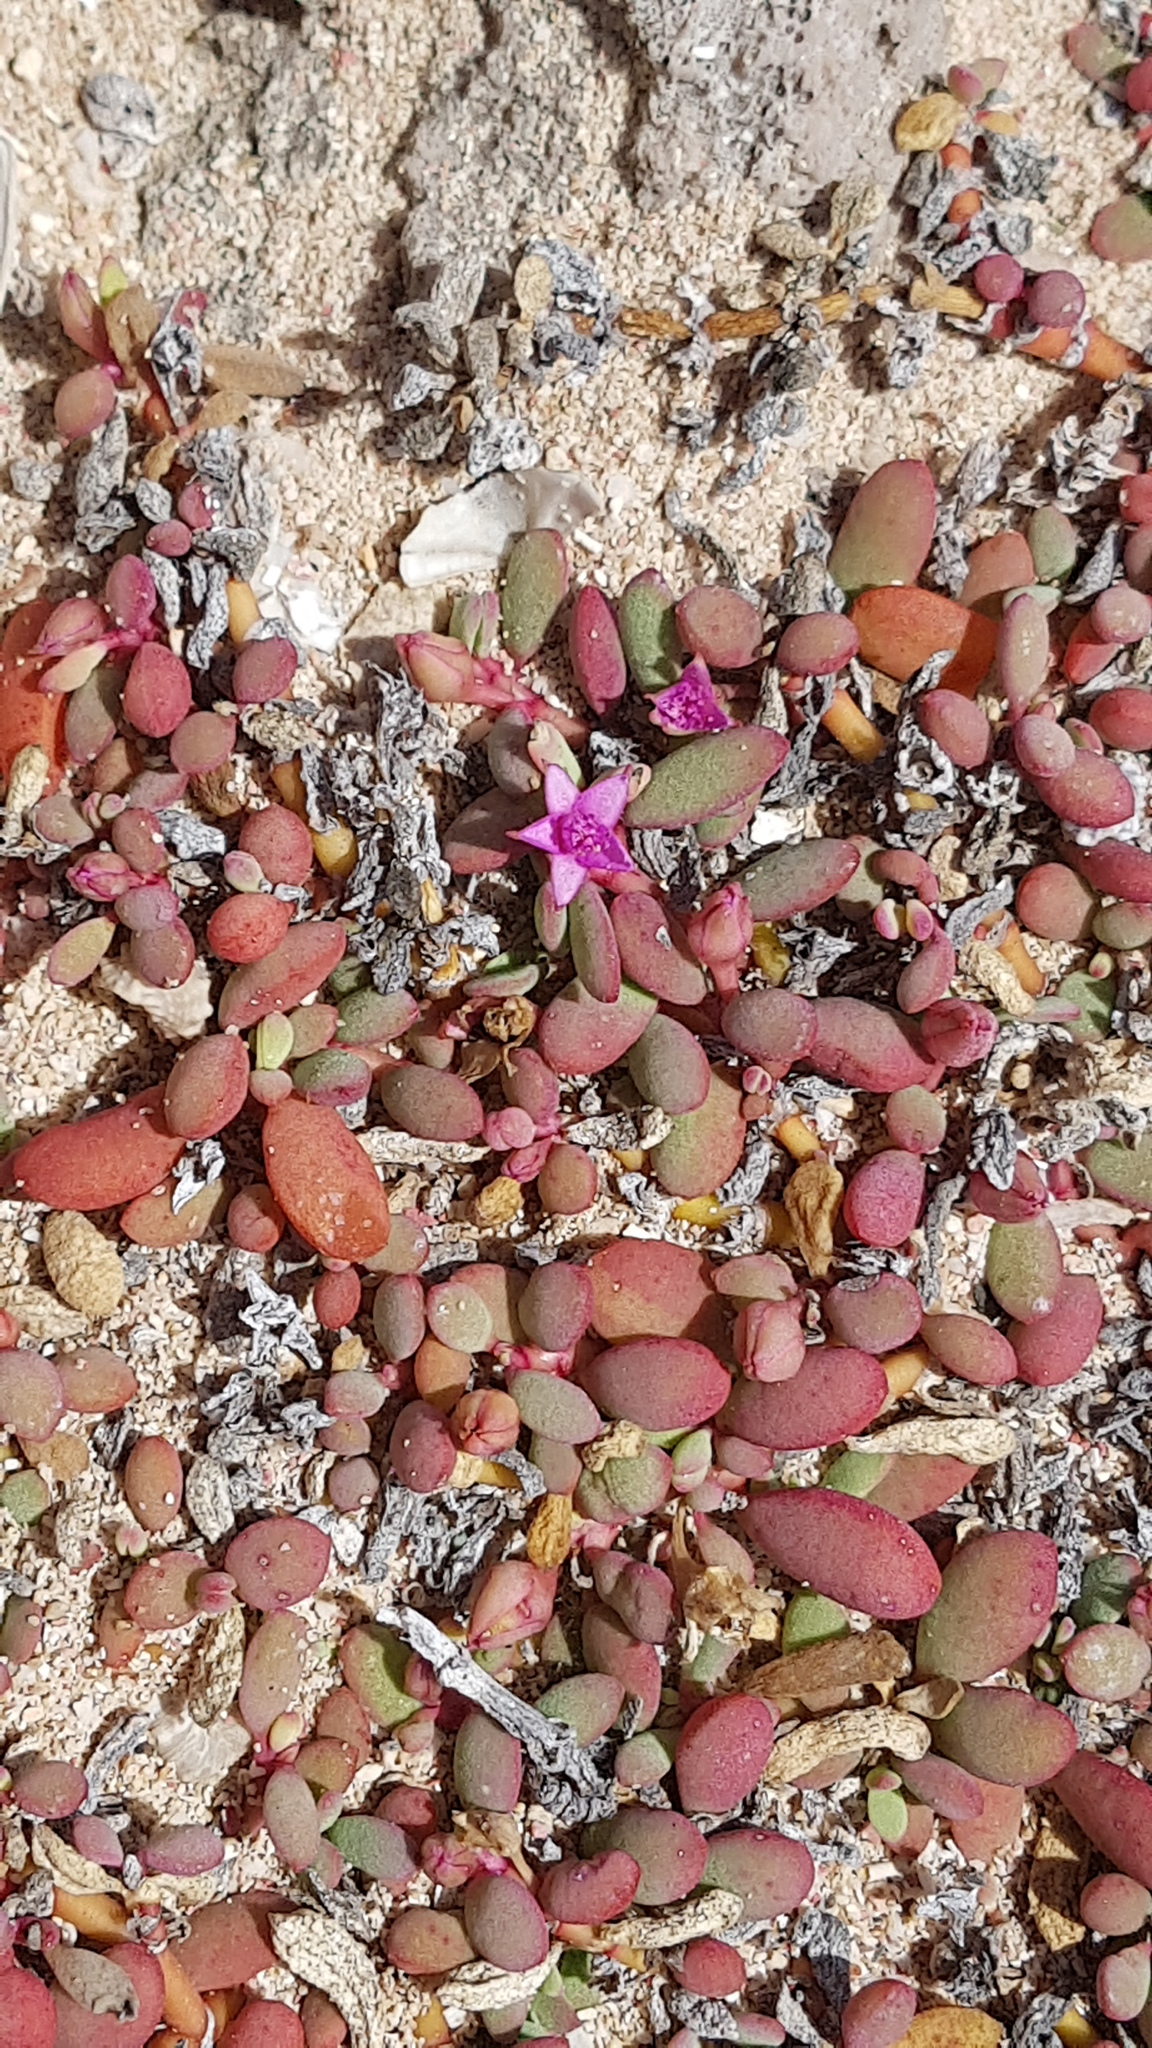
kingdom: Plantae
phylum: Tracheophyta
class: Magnoliopsida
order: Caryophyllales
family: Aizoaceae
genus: Sesuvium
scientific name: Sesuvium portulacastrum
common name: Sea-purslane
